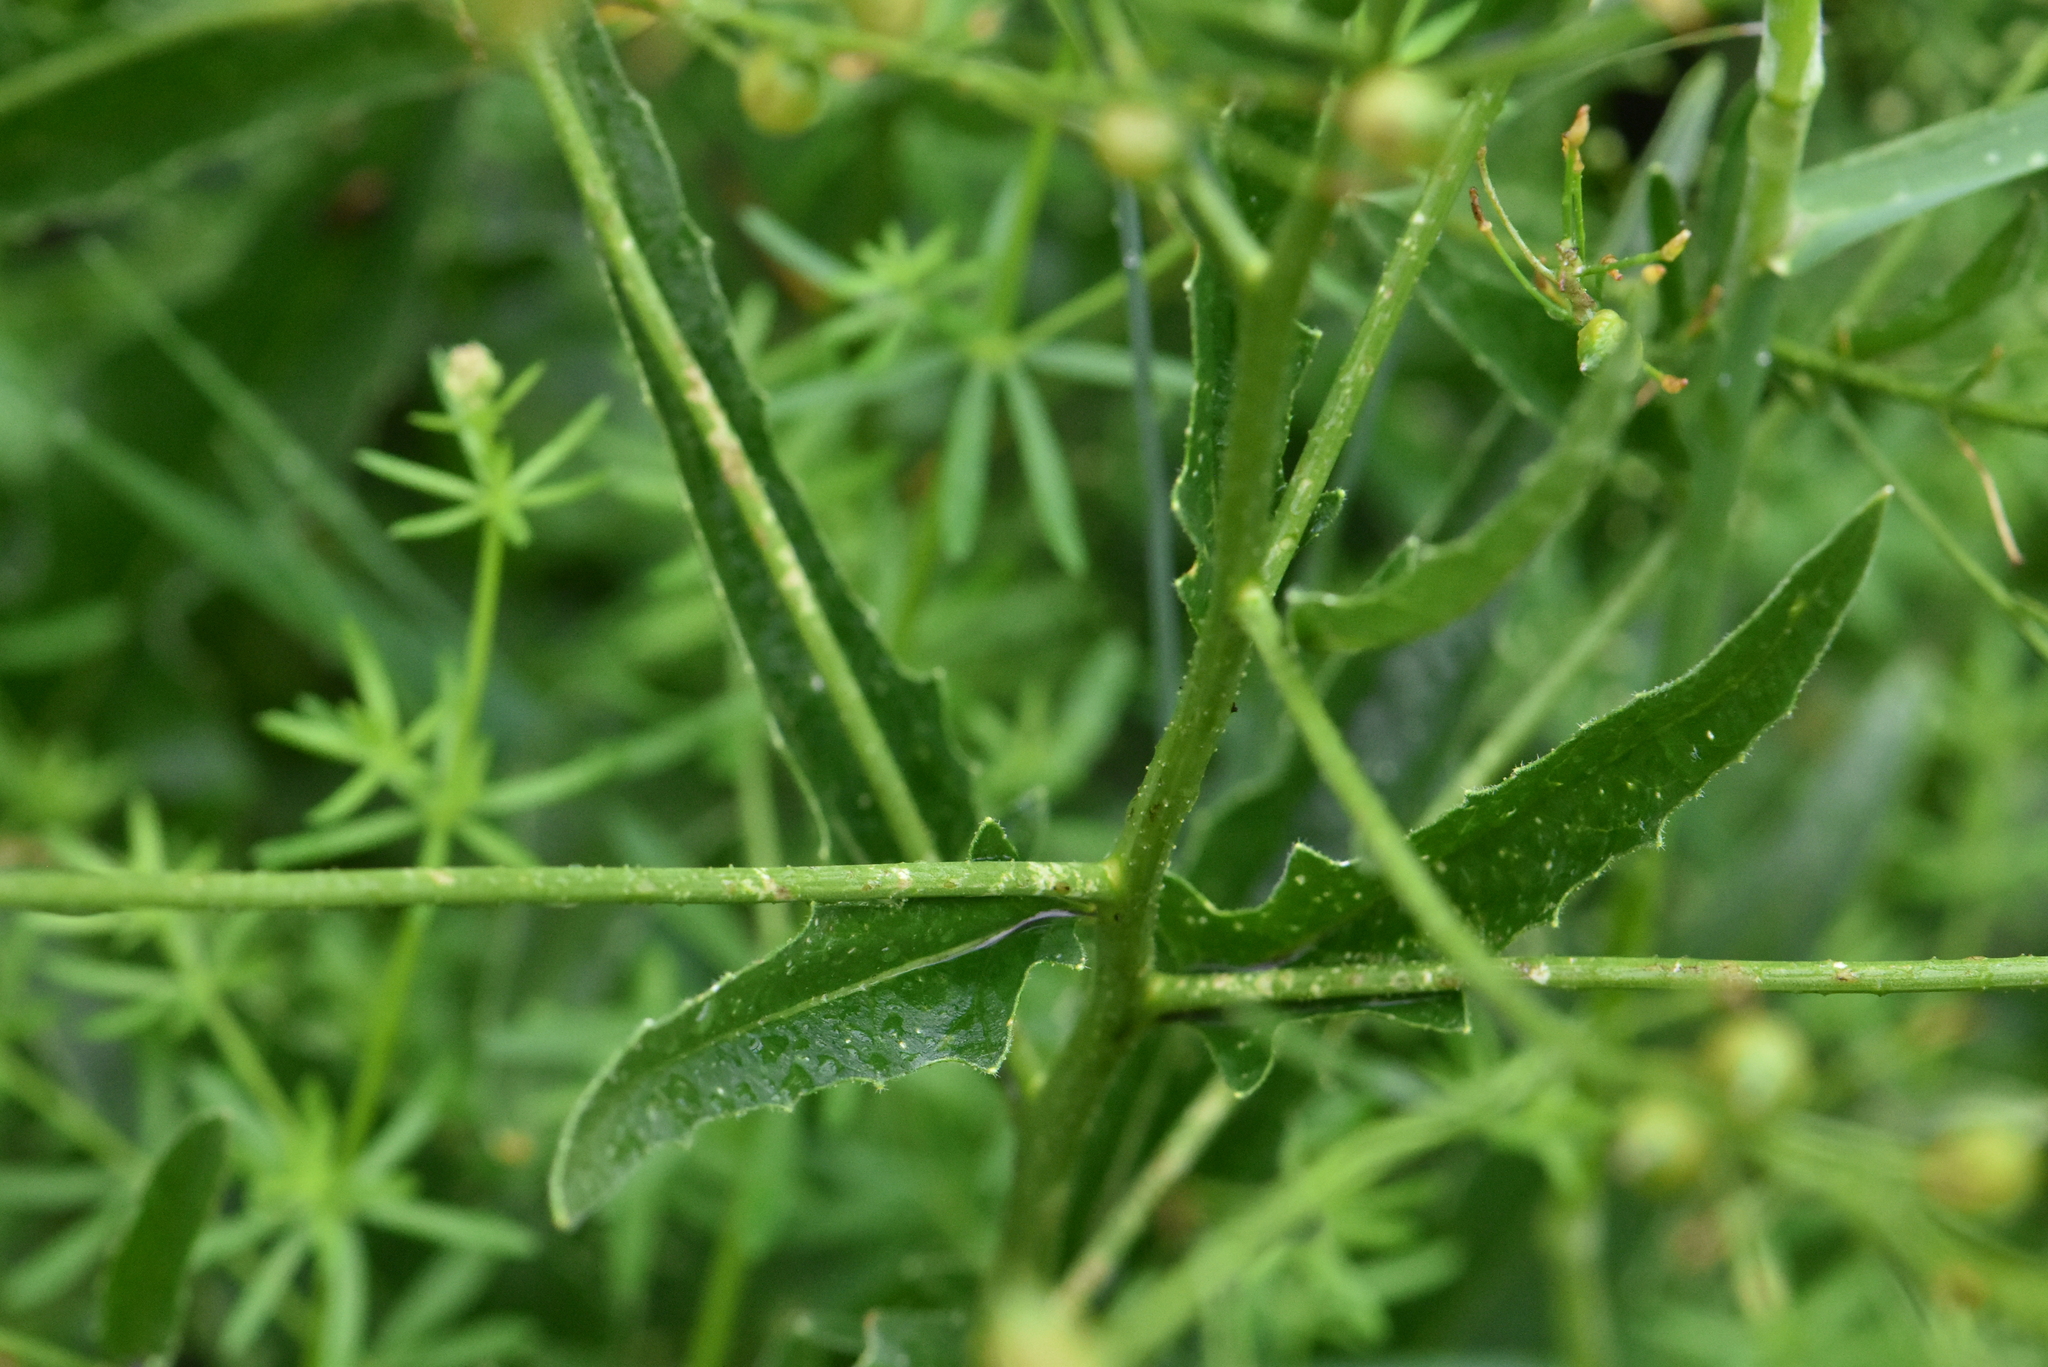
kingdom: Plantae
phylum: Tracheophyta
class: Magnoliopsida
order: Brassicales
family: Brassicaceae
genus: Bunias
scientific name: Bunias orientalis
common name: Warty-cabbage
